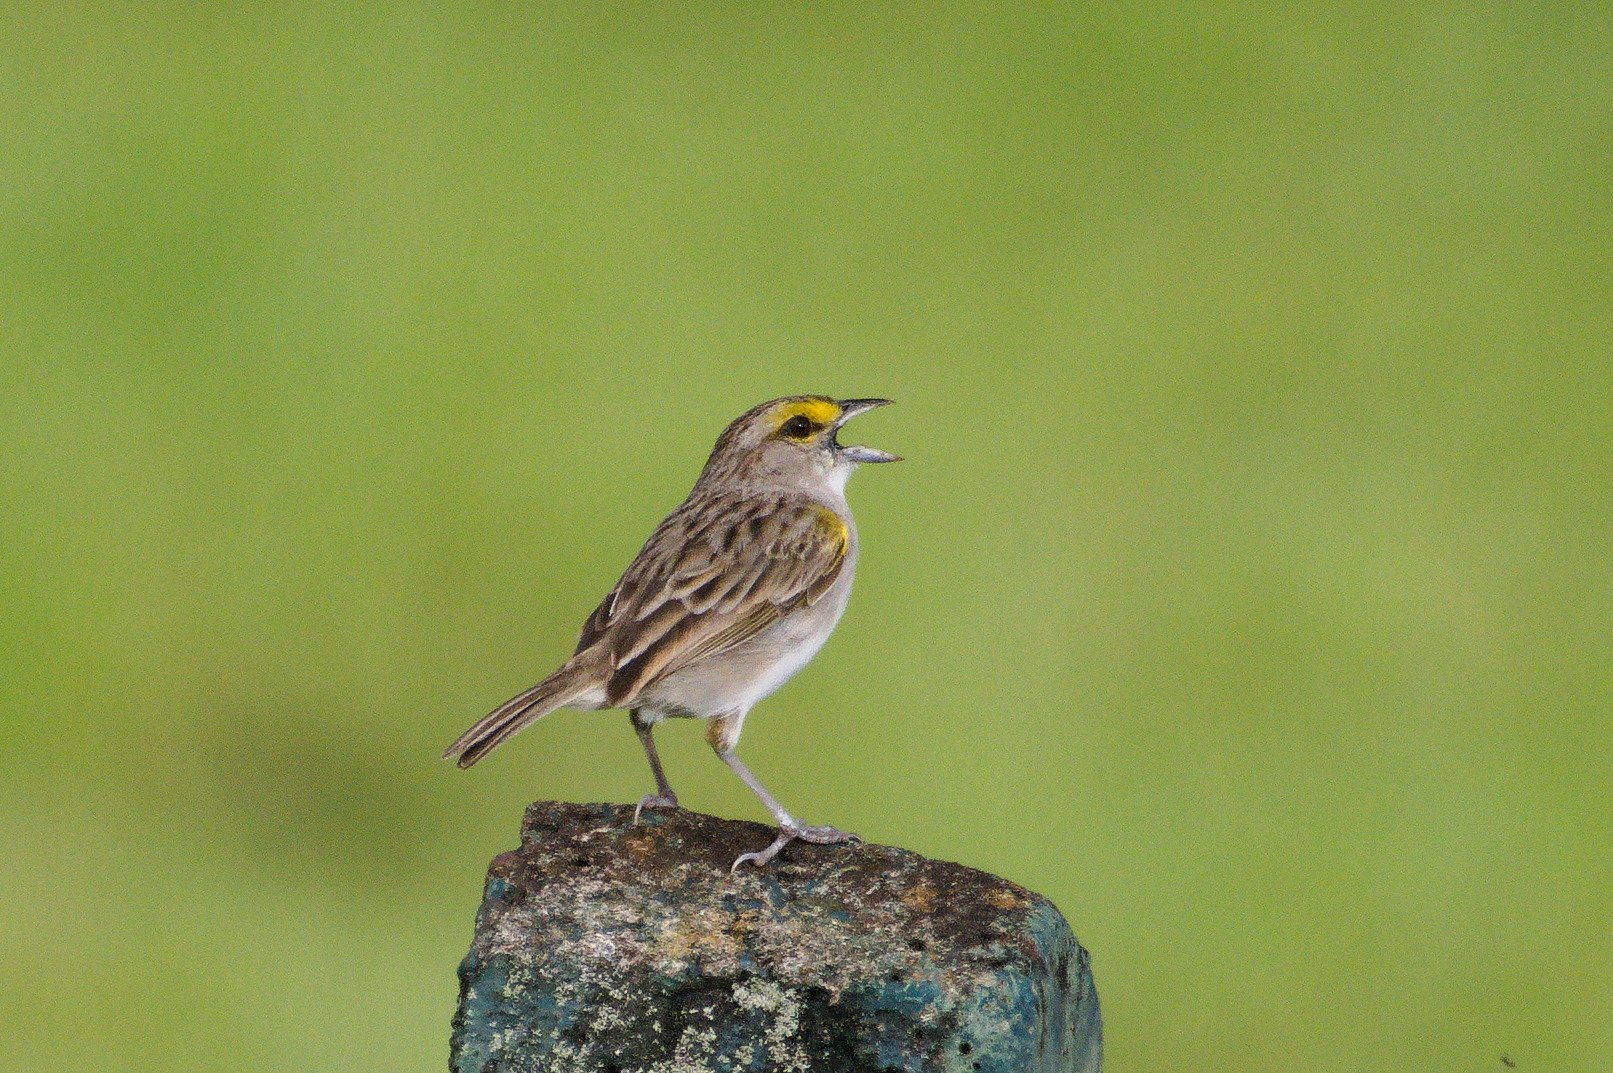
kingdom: Animalia
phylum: Chordata
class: Aves
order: Passeriformes
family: Passerellidae
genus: Ammodramus
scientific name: Ammodramus aurifrons
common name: Yellow-browed sparrow
